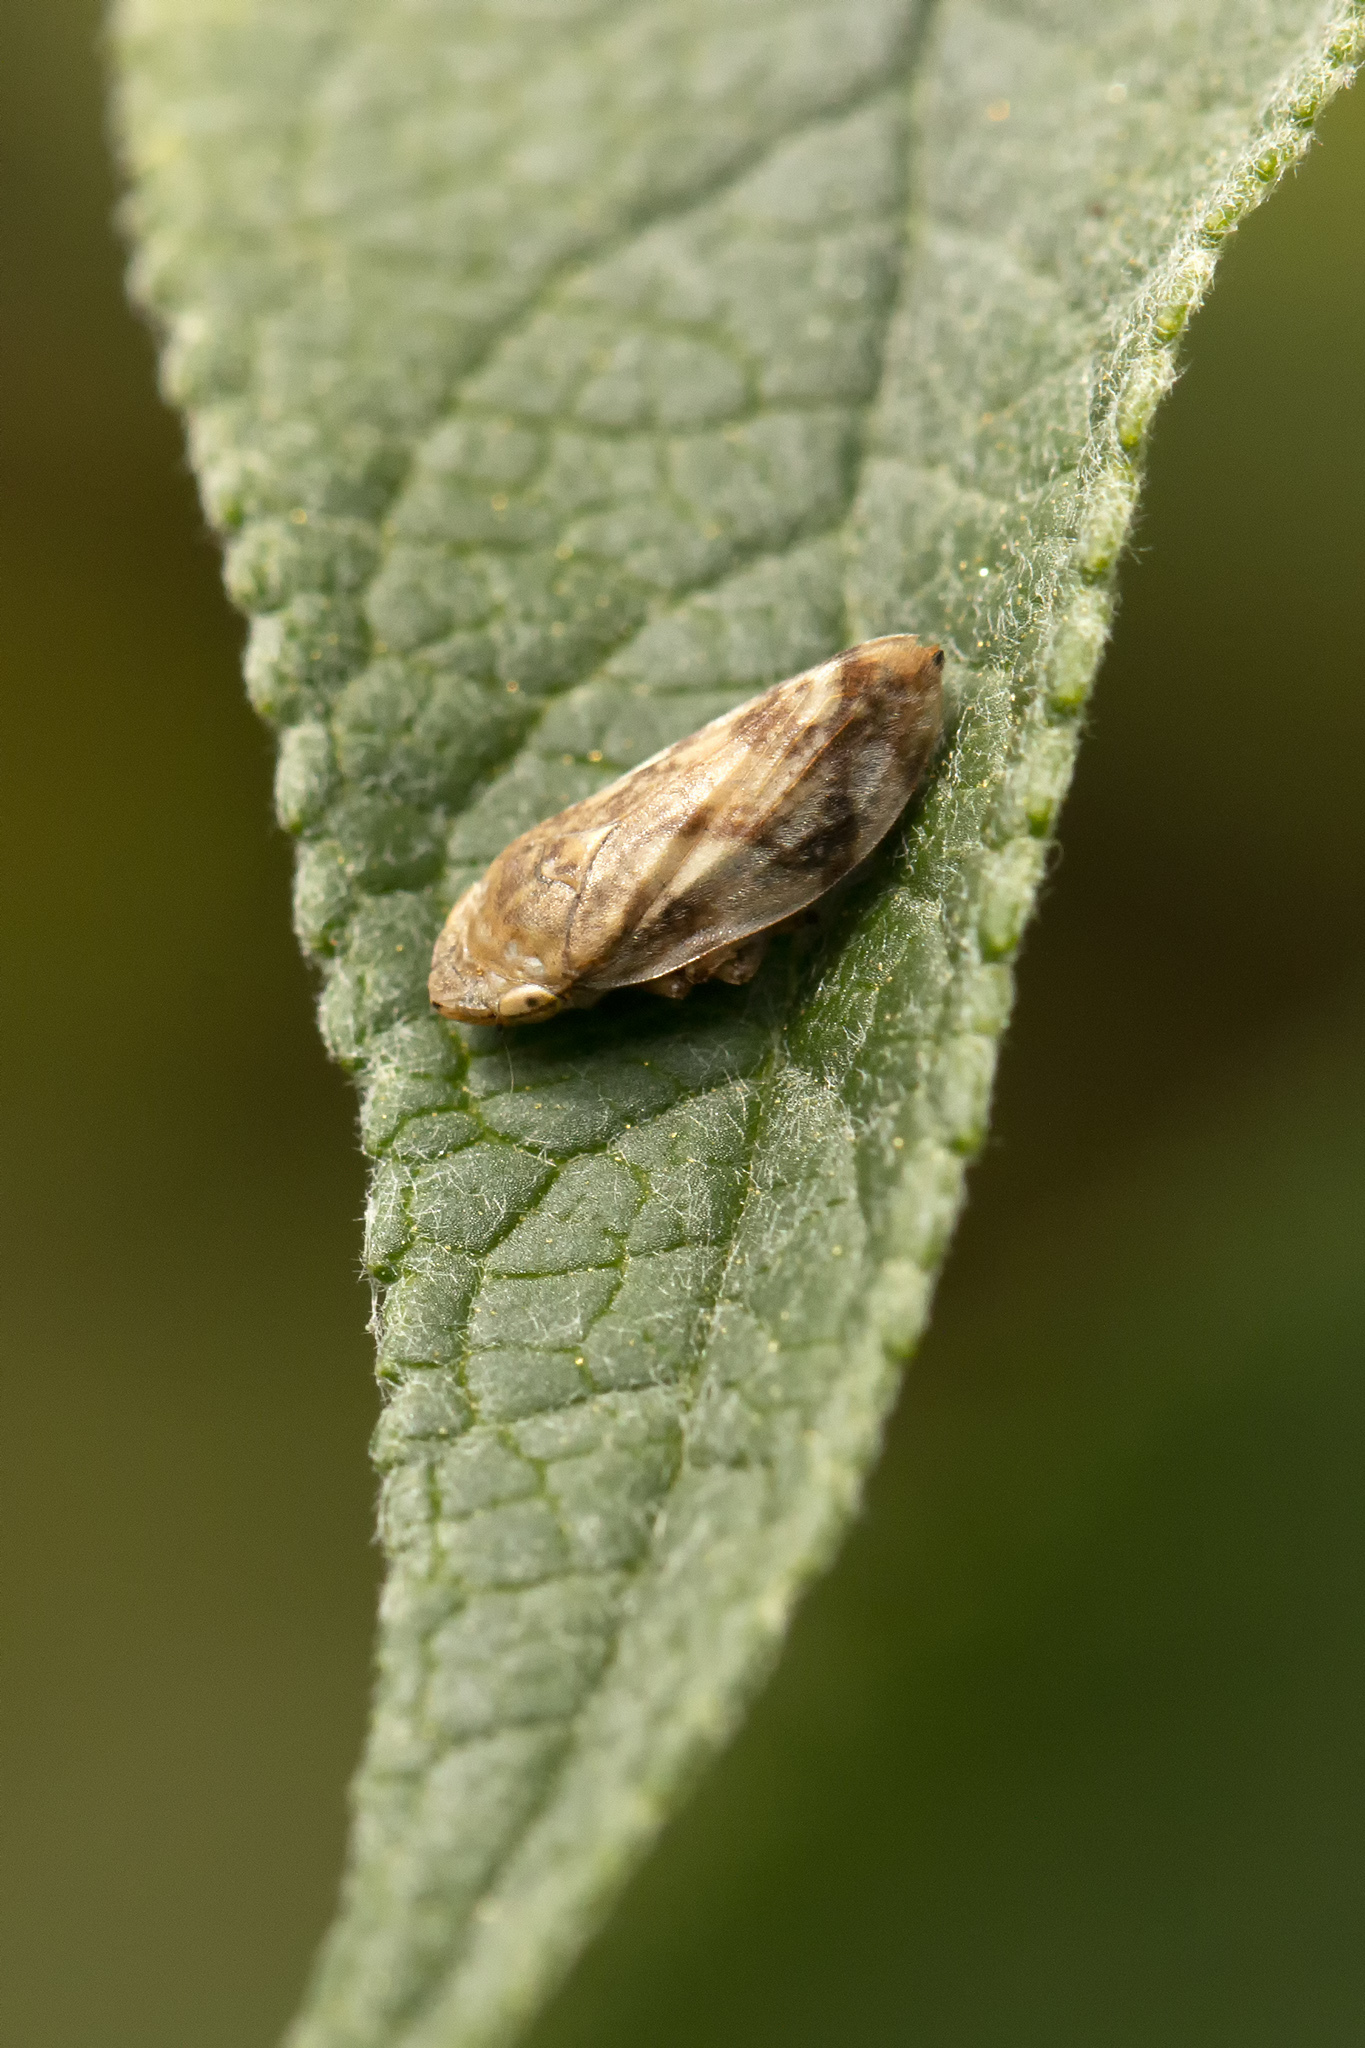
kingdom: Animalia
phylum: Arthropoda
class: Insecta
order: Hemiptera
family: Aphrophoridae
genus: Philaenus
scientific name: Philaenus spumarius
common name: Meadow spittlebug
